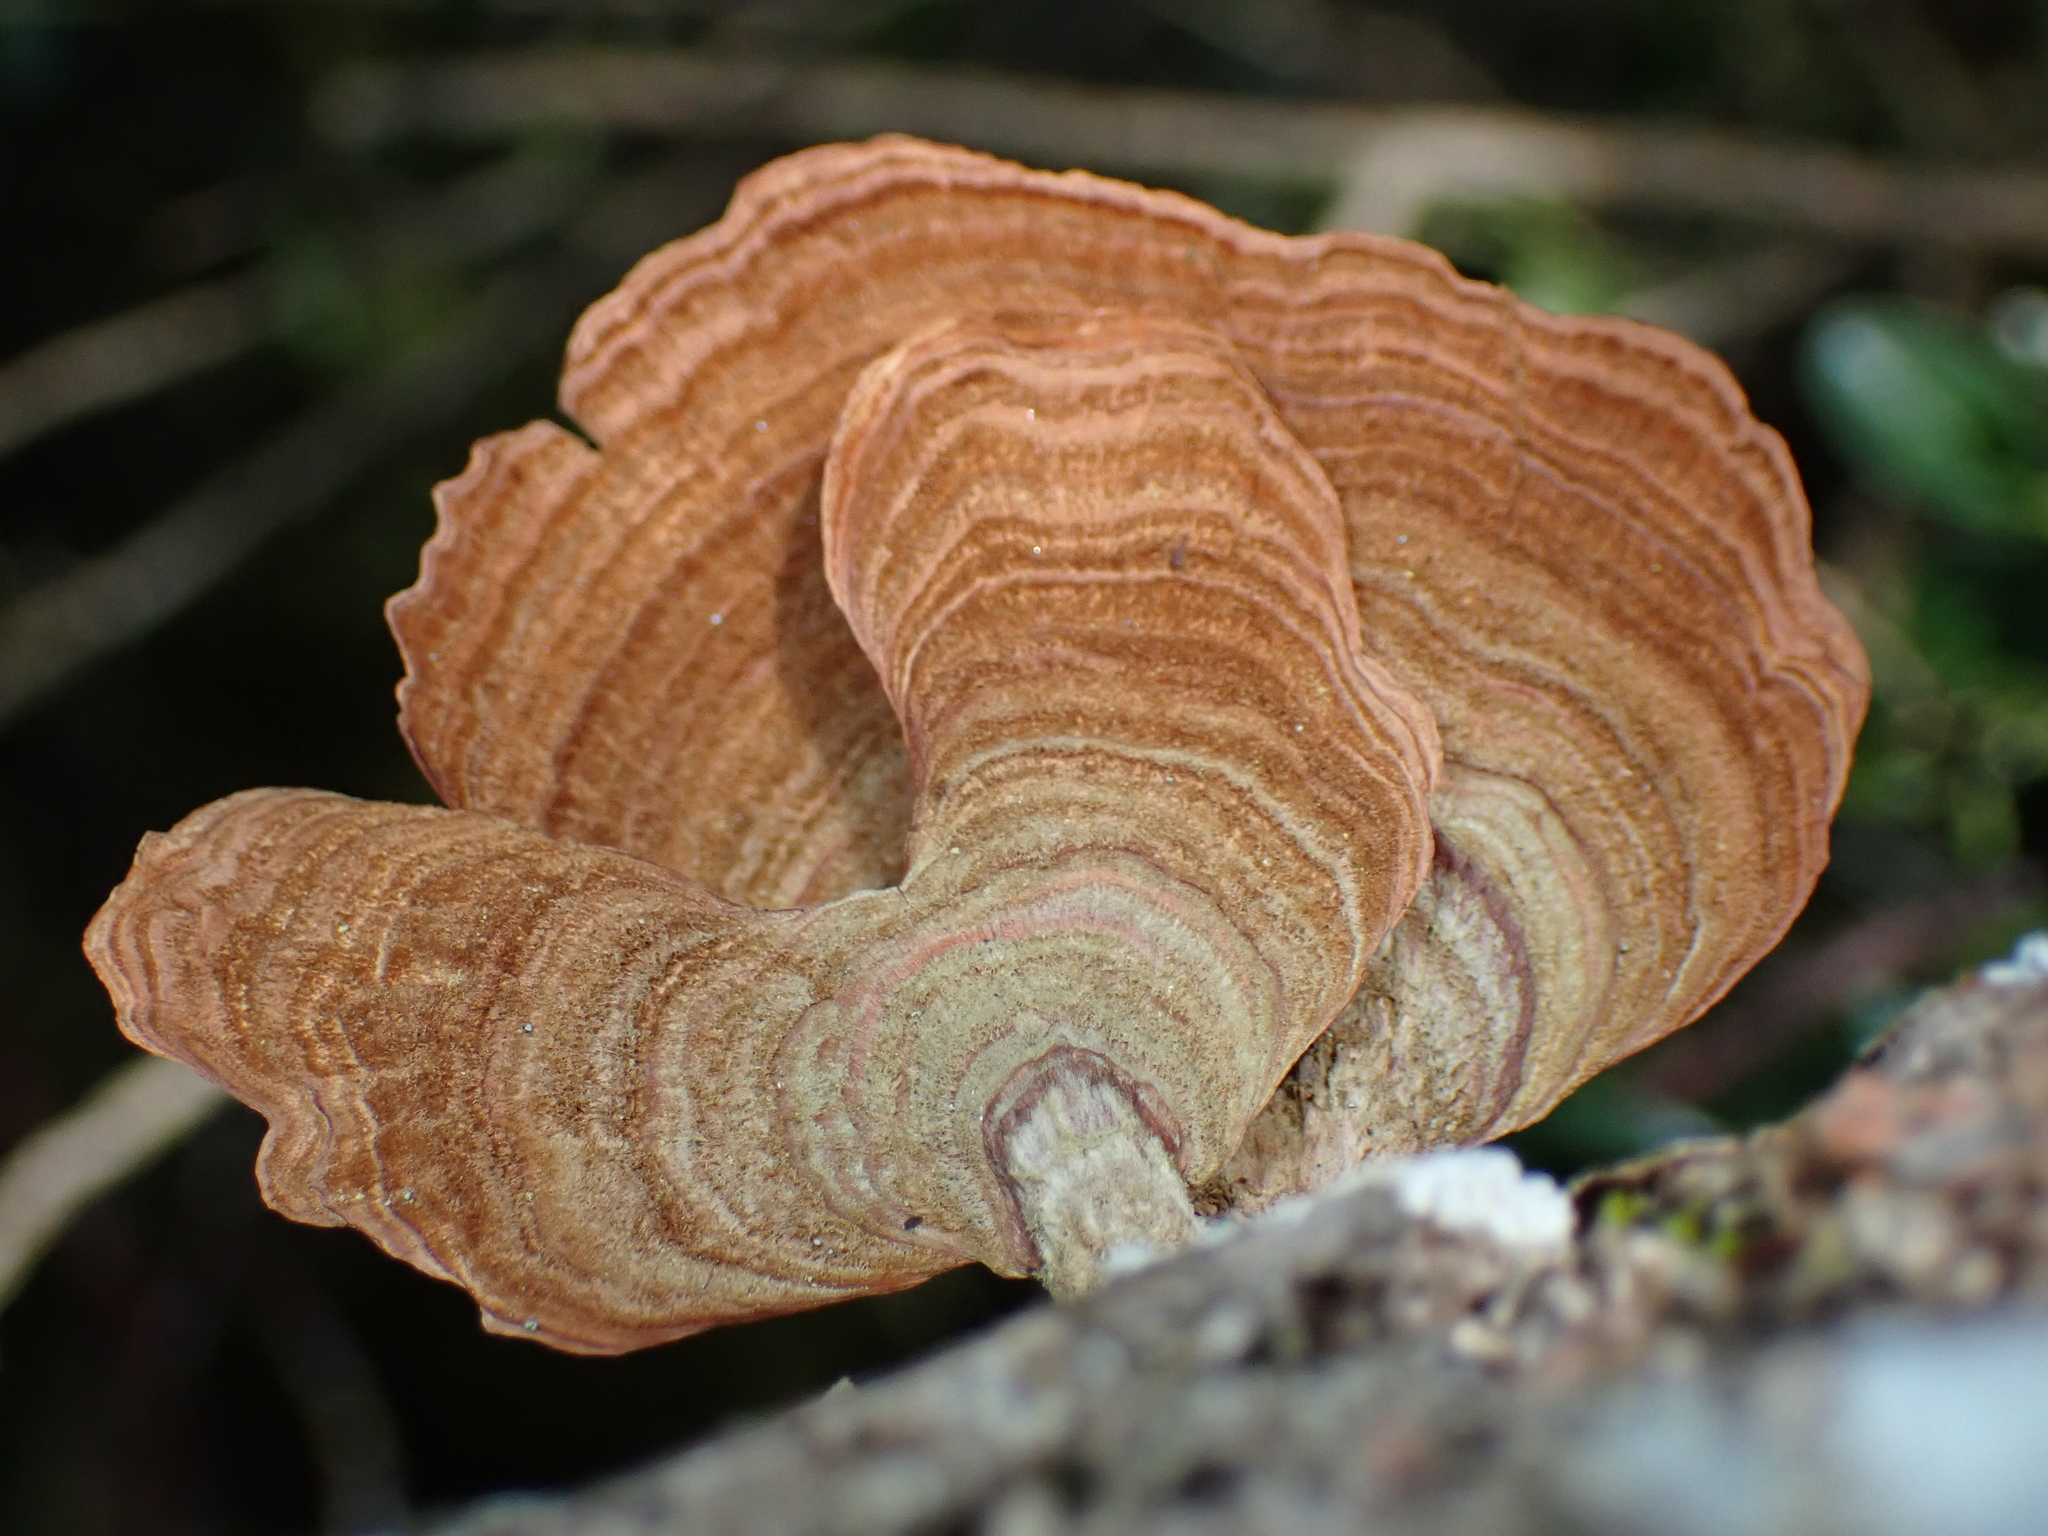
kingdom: Fungi
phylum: Basidiomycota
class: Agaricomycetes
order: Russulales
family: Stereaceae
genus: Stereum
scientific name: Stereum versicolor
